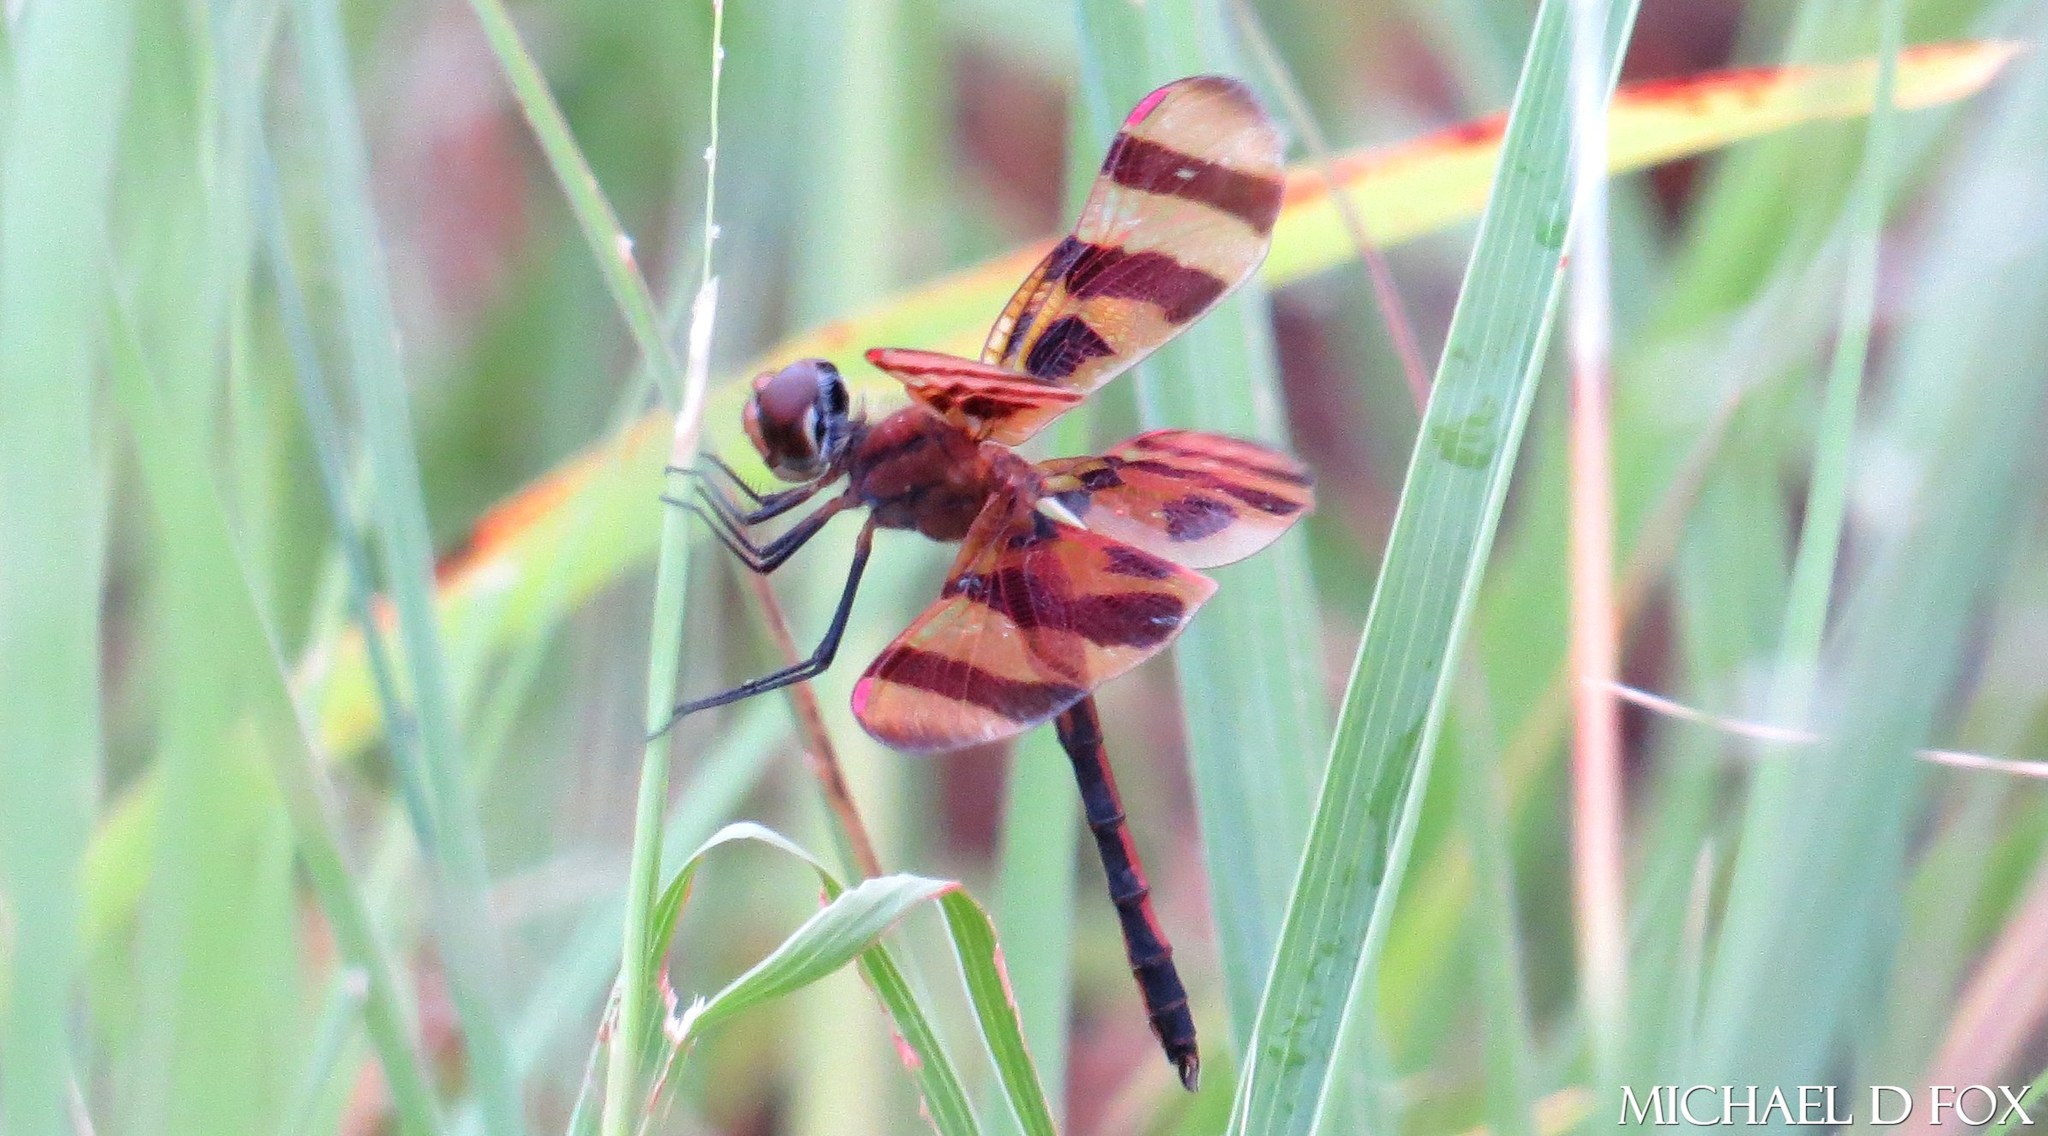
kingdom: Animalia
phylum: Arthropoda
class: Insecta
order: Odonata
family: Libellulidae
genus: Celithemis
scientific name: Celithemis eponina
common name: Halloween pennant
